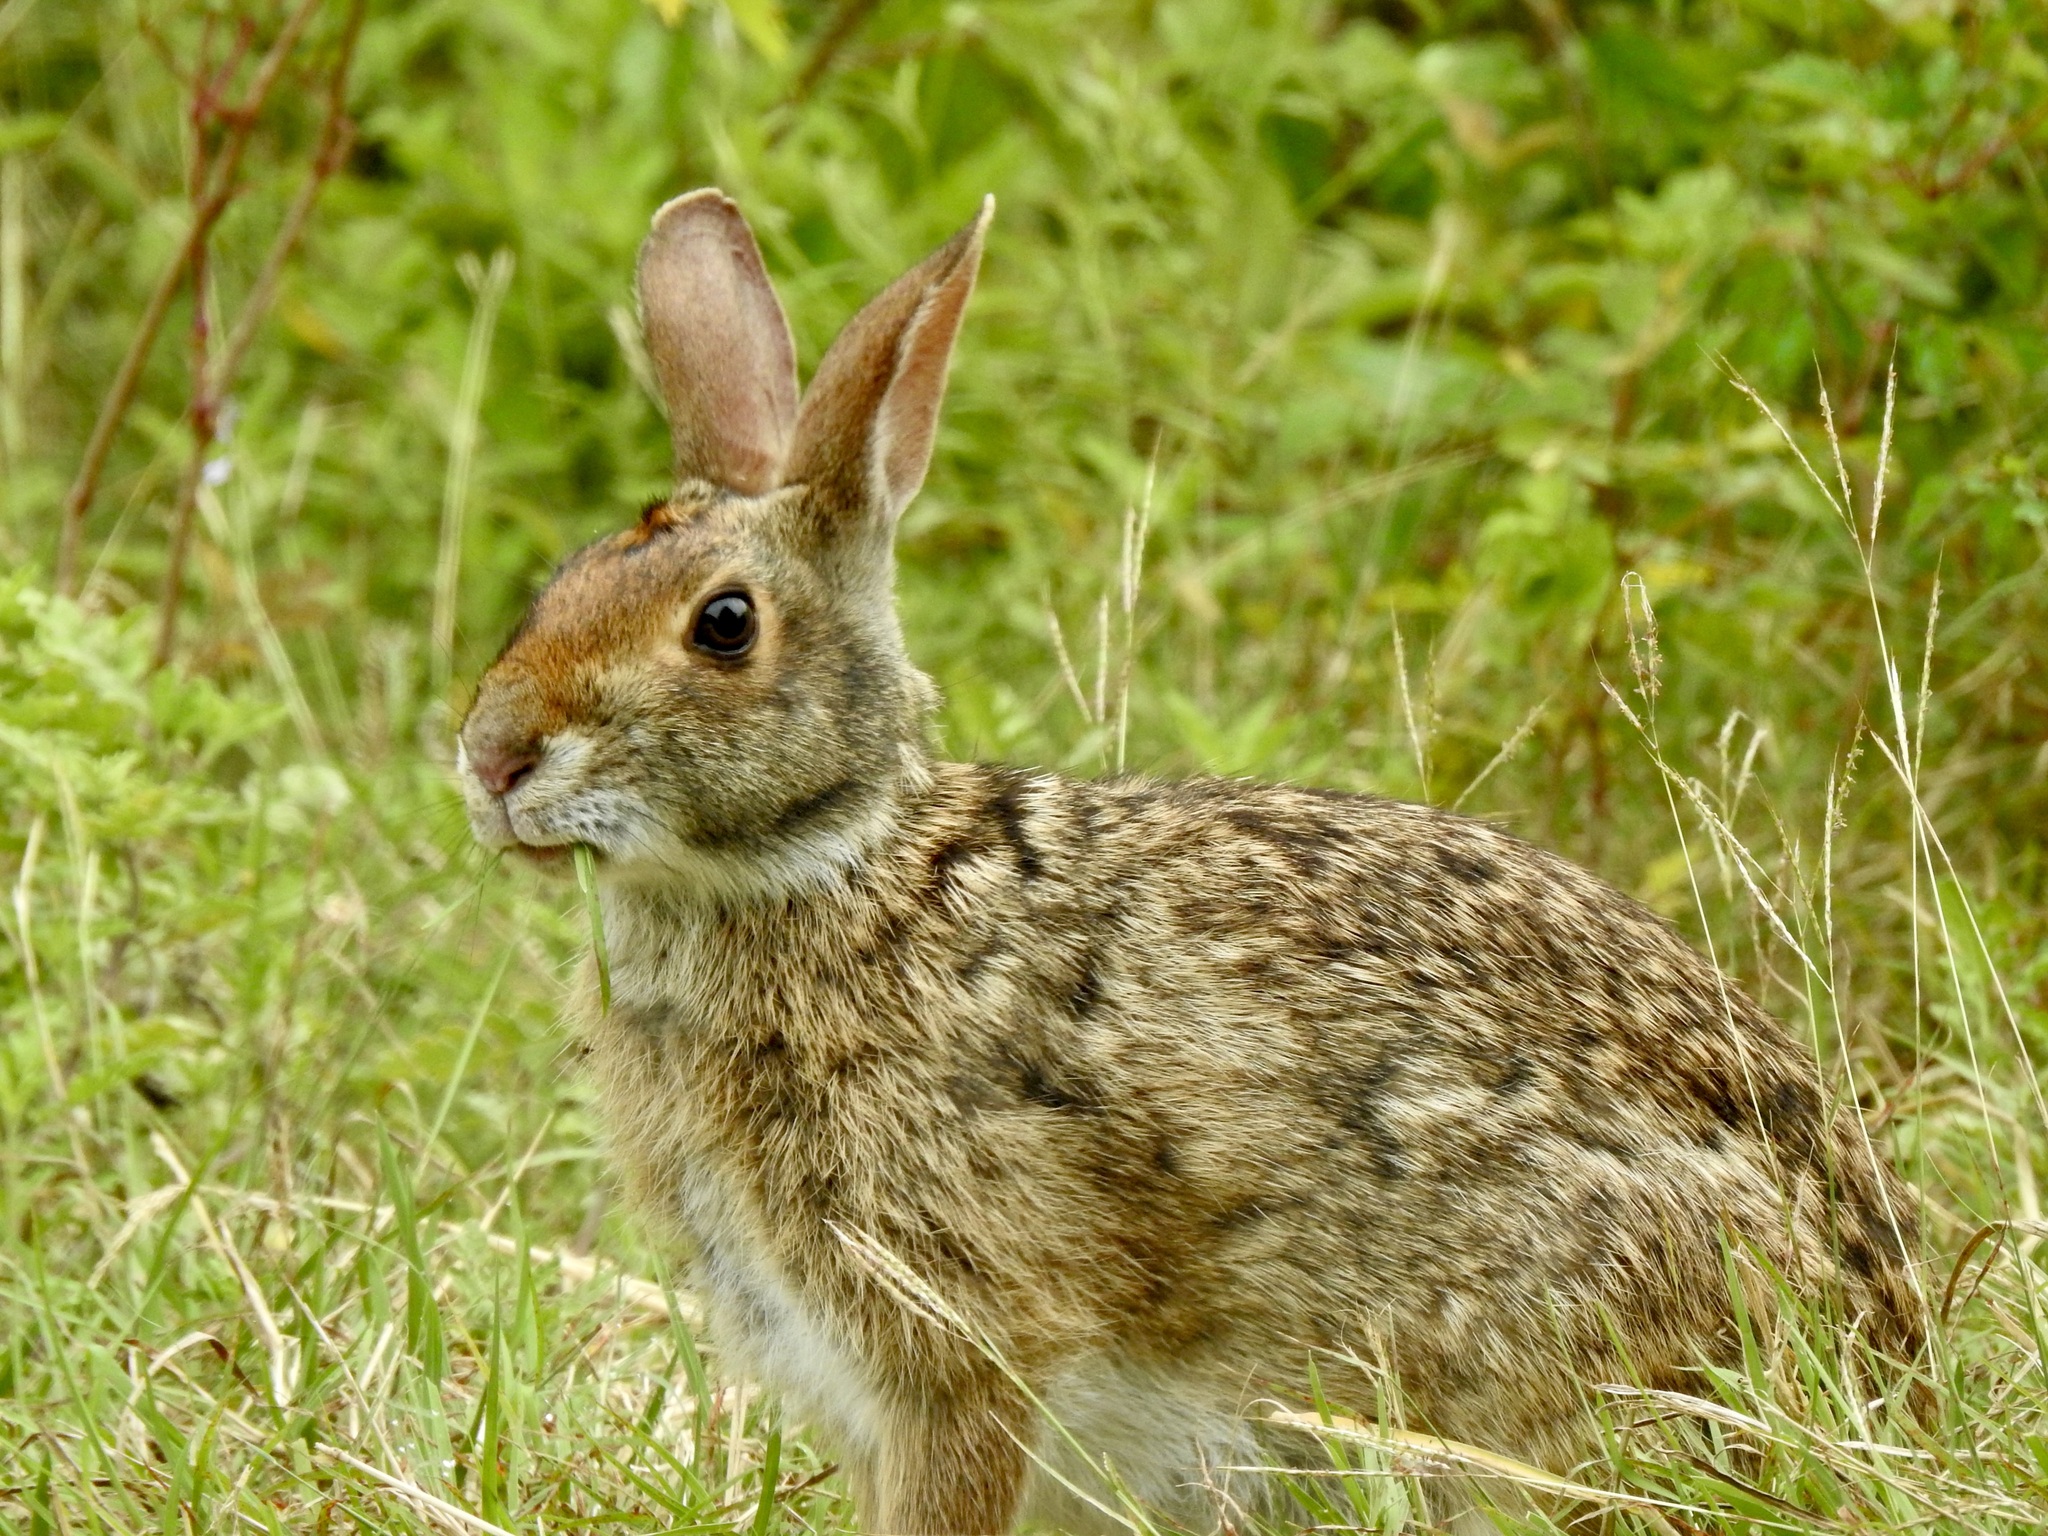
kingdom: Animalia
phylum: Chordata
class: Mammalia
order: Lagomorpha
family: Leporidae
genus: Sylvilagus
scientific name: Sylvilagus aquaticus
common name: Swamp rabbit
